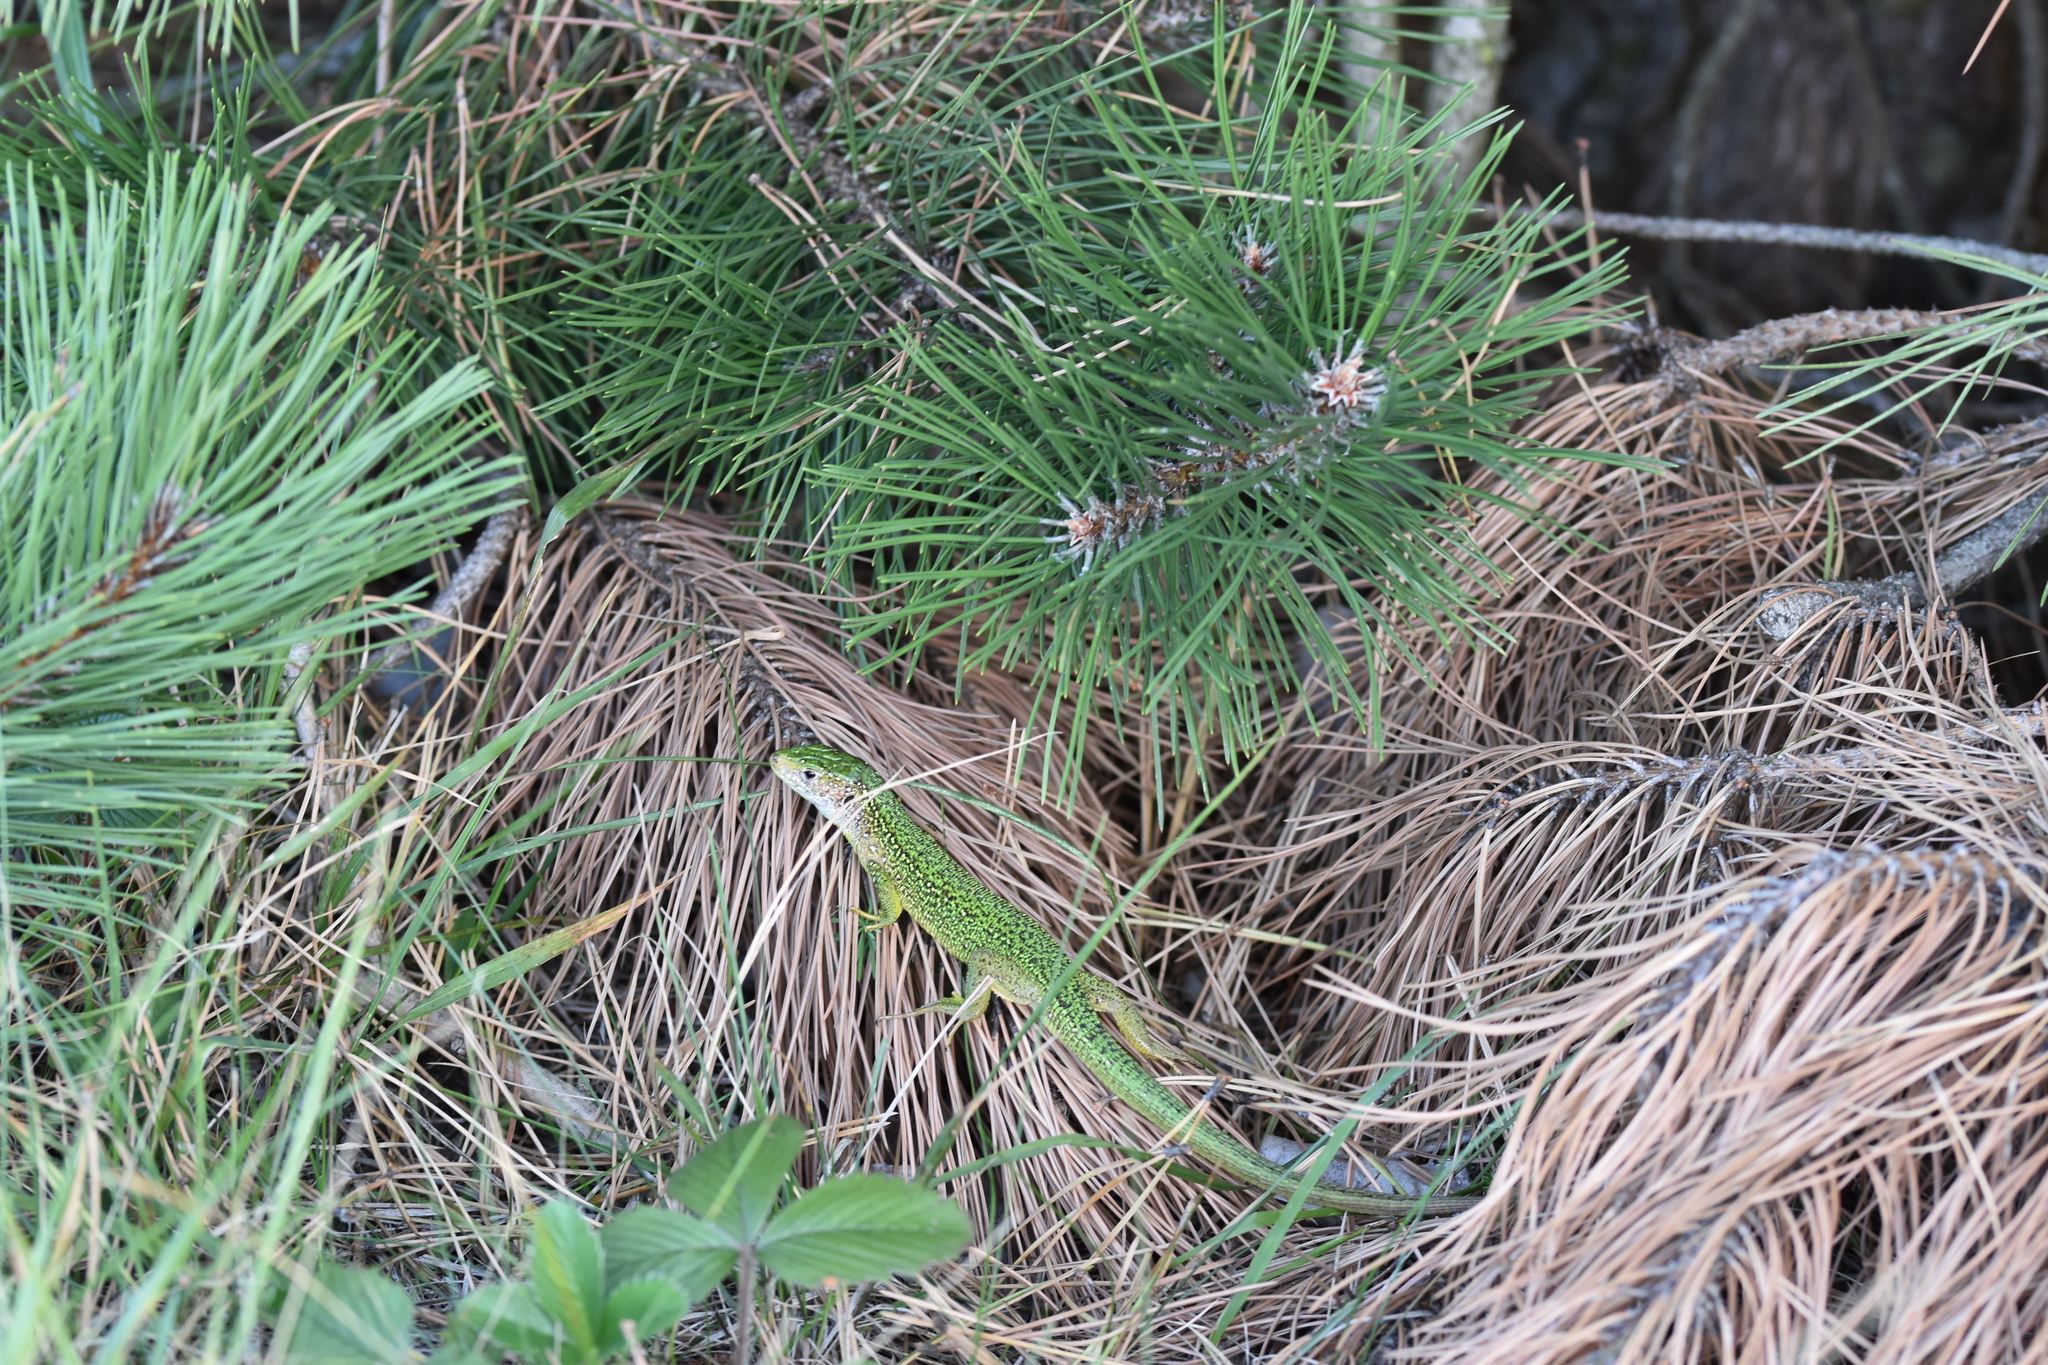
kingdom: Animalia
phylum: Chordata
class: Squamata
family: Lacertidae
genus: Lacerta
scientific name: Lacerta bilineata
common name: Western green lizard
